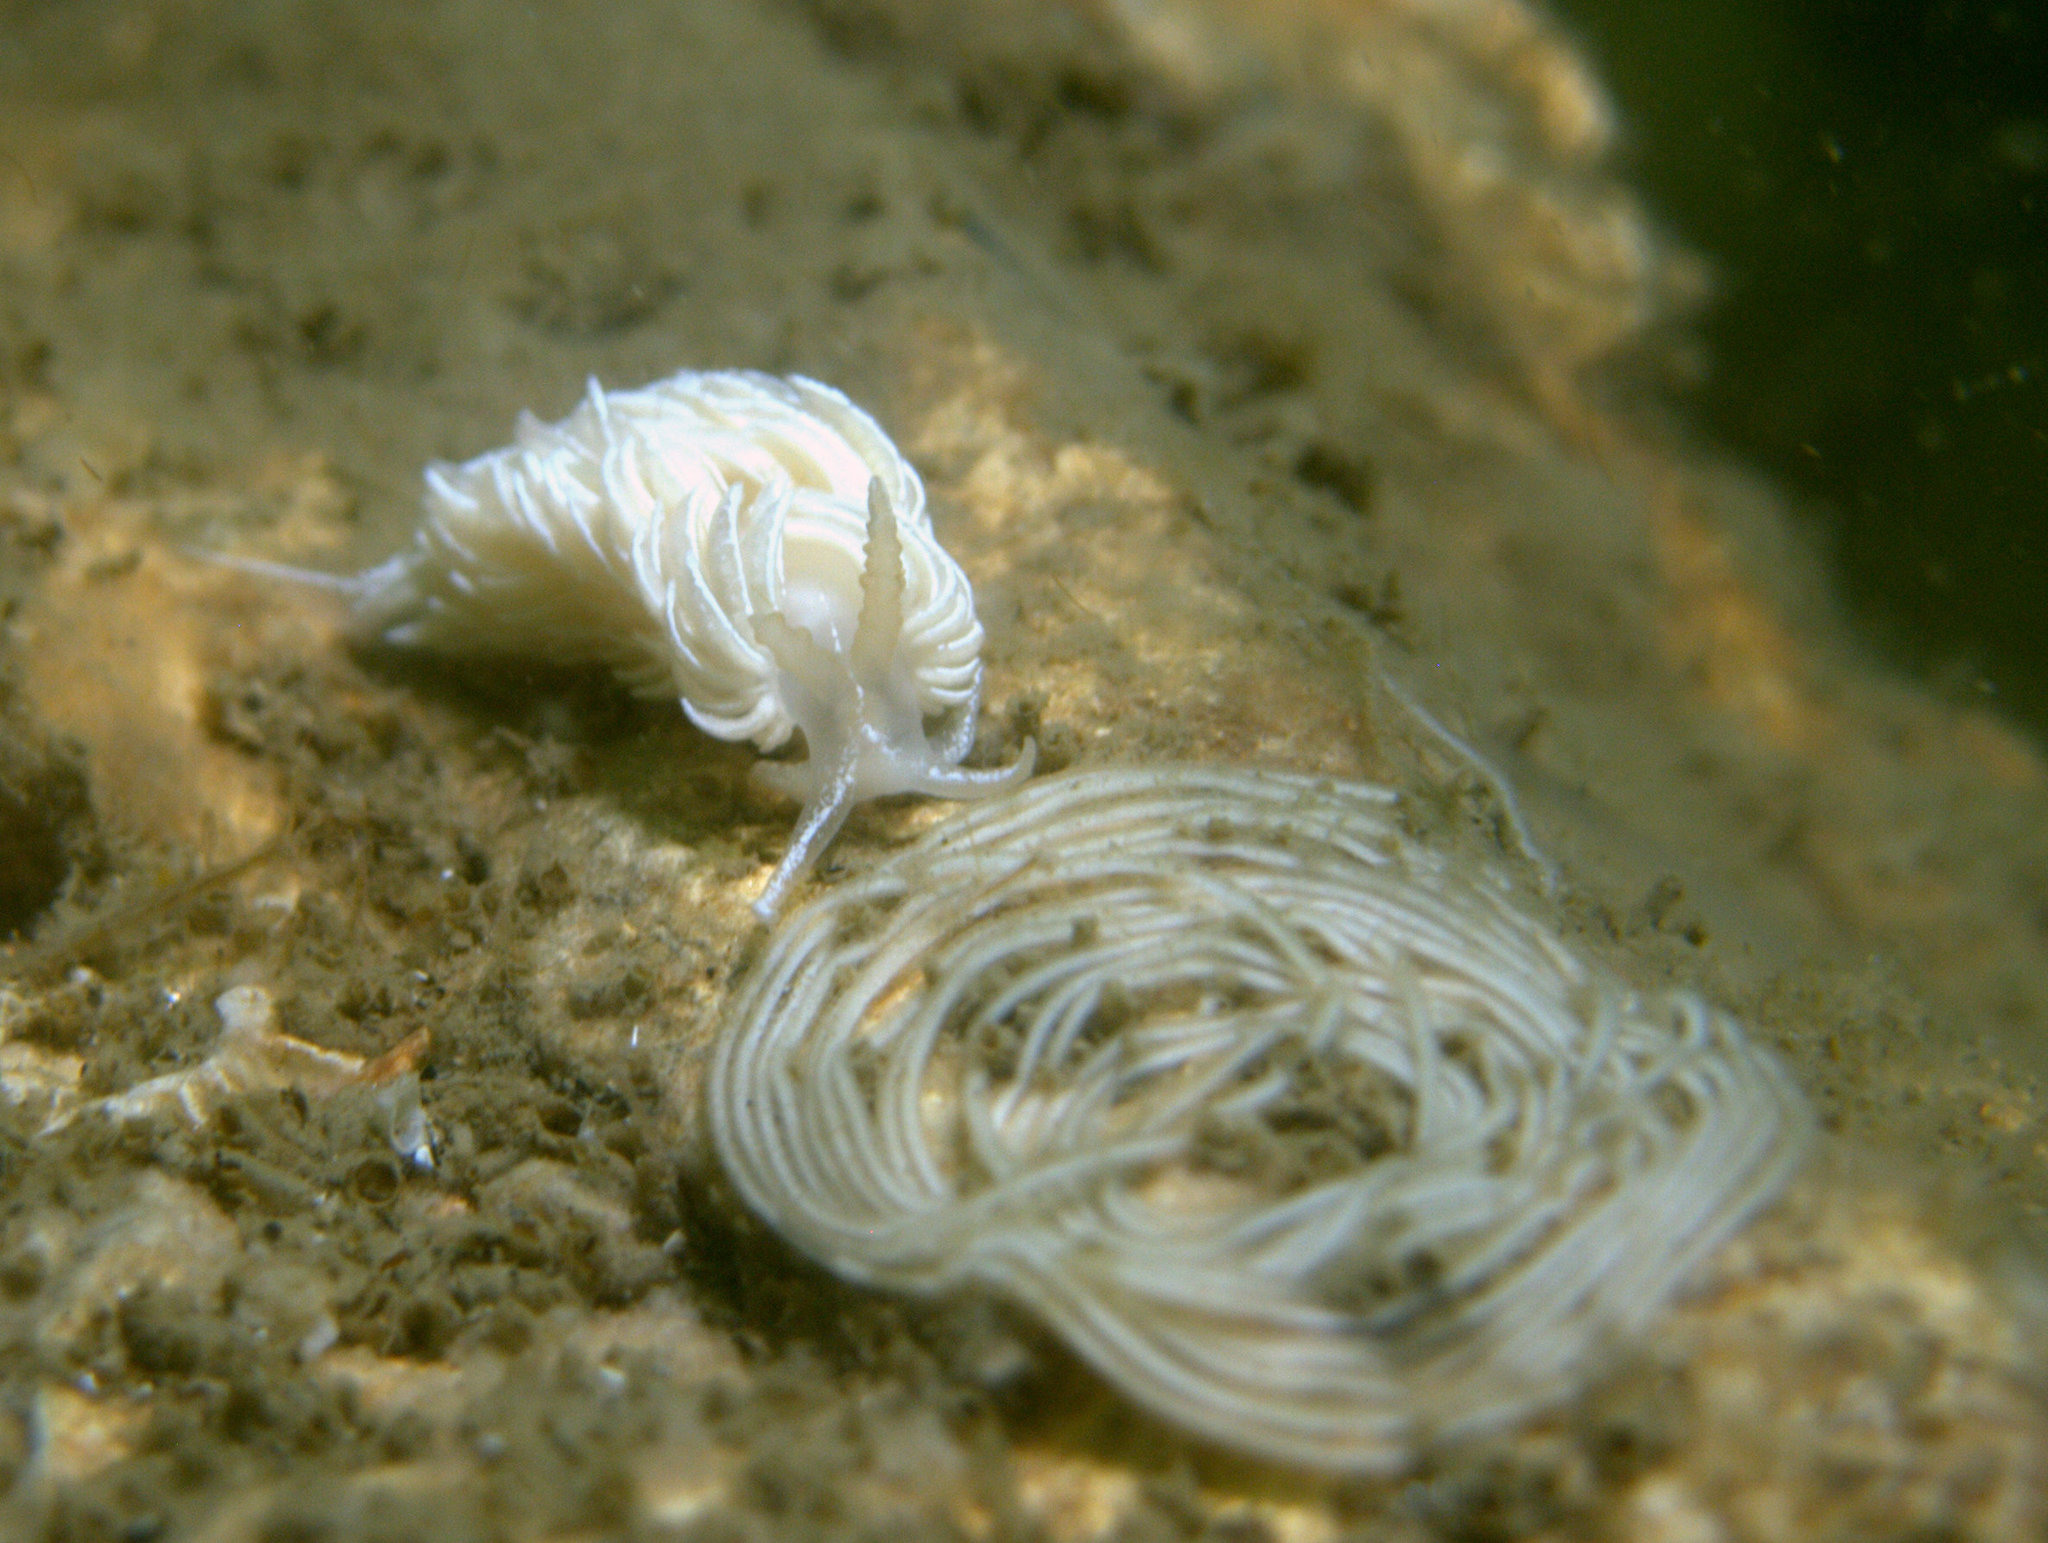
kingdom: Animalia
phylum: Mollusca
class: Gastropoda
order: Nudibranchia
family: Facelinidae
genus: Favorinus
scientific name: Favorinus blianus
